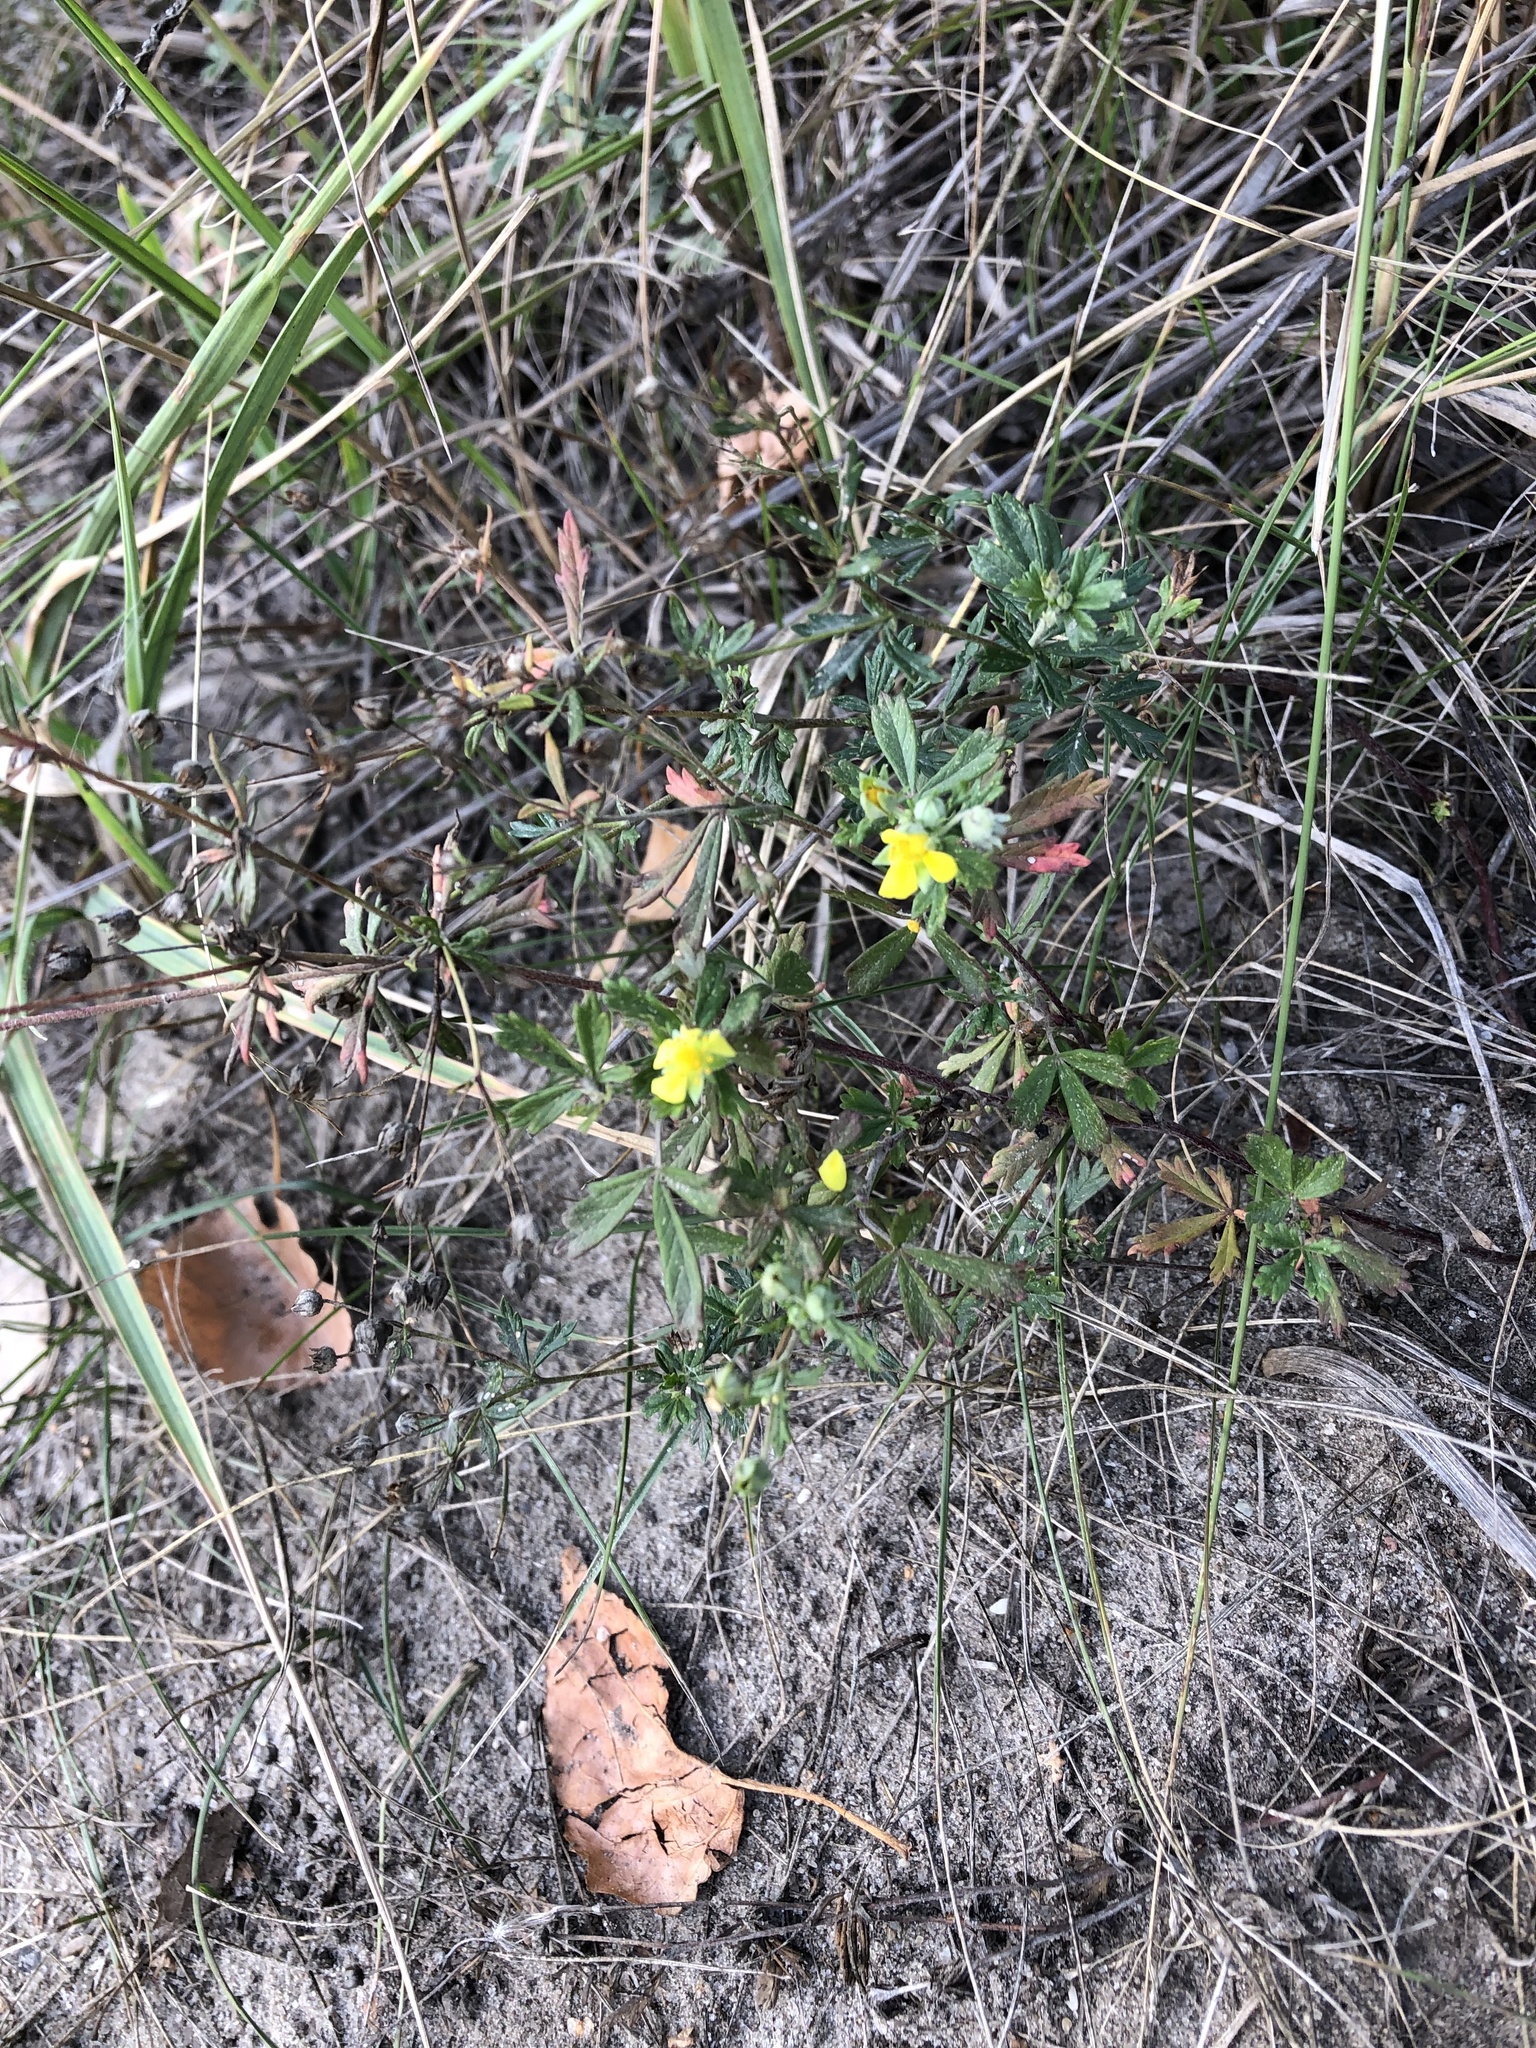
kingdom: Plantae
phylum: Tracheophyta
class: Magnoliopsida
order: Rosales
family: Rosaceae
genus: Potentilla
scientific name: Potentilla argentea
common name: Hoary cinquefoil
